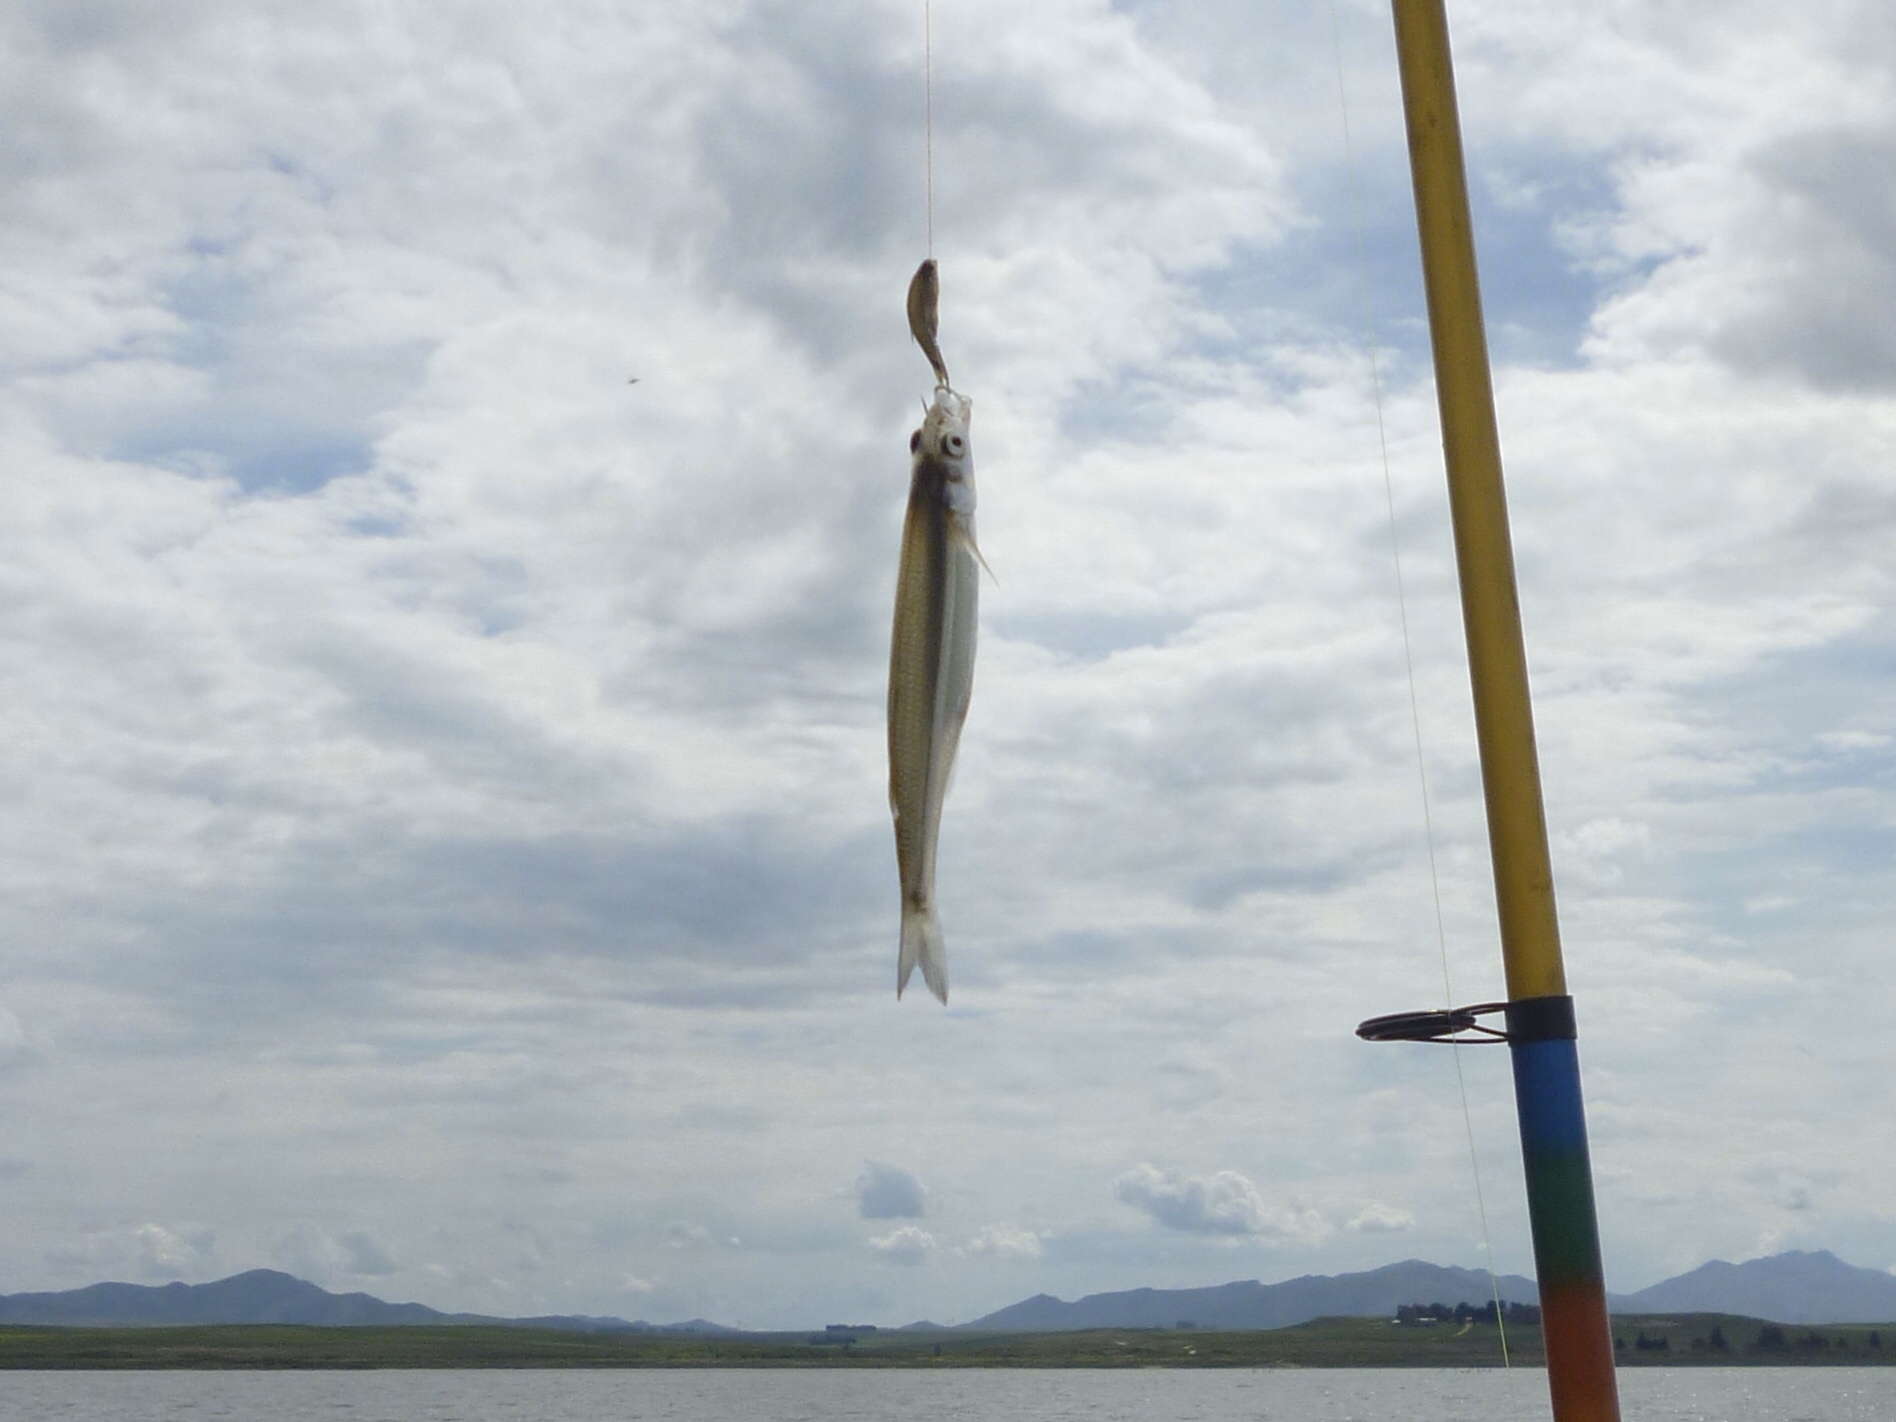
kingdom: Animalia
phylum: Chordata
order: Atheriniformes
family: Atherinopsidae
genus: Odontesthes
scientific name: Odontesthes bonariensis
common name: Argentinian silverside
